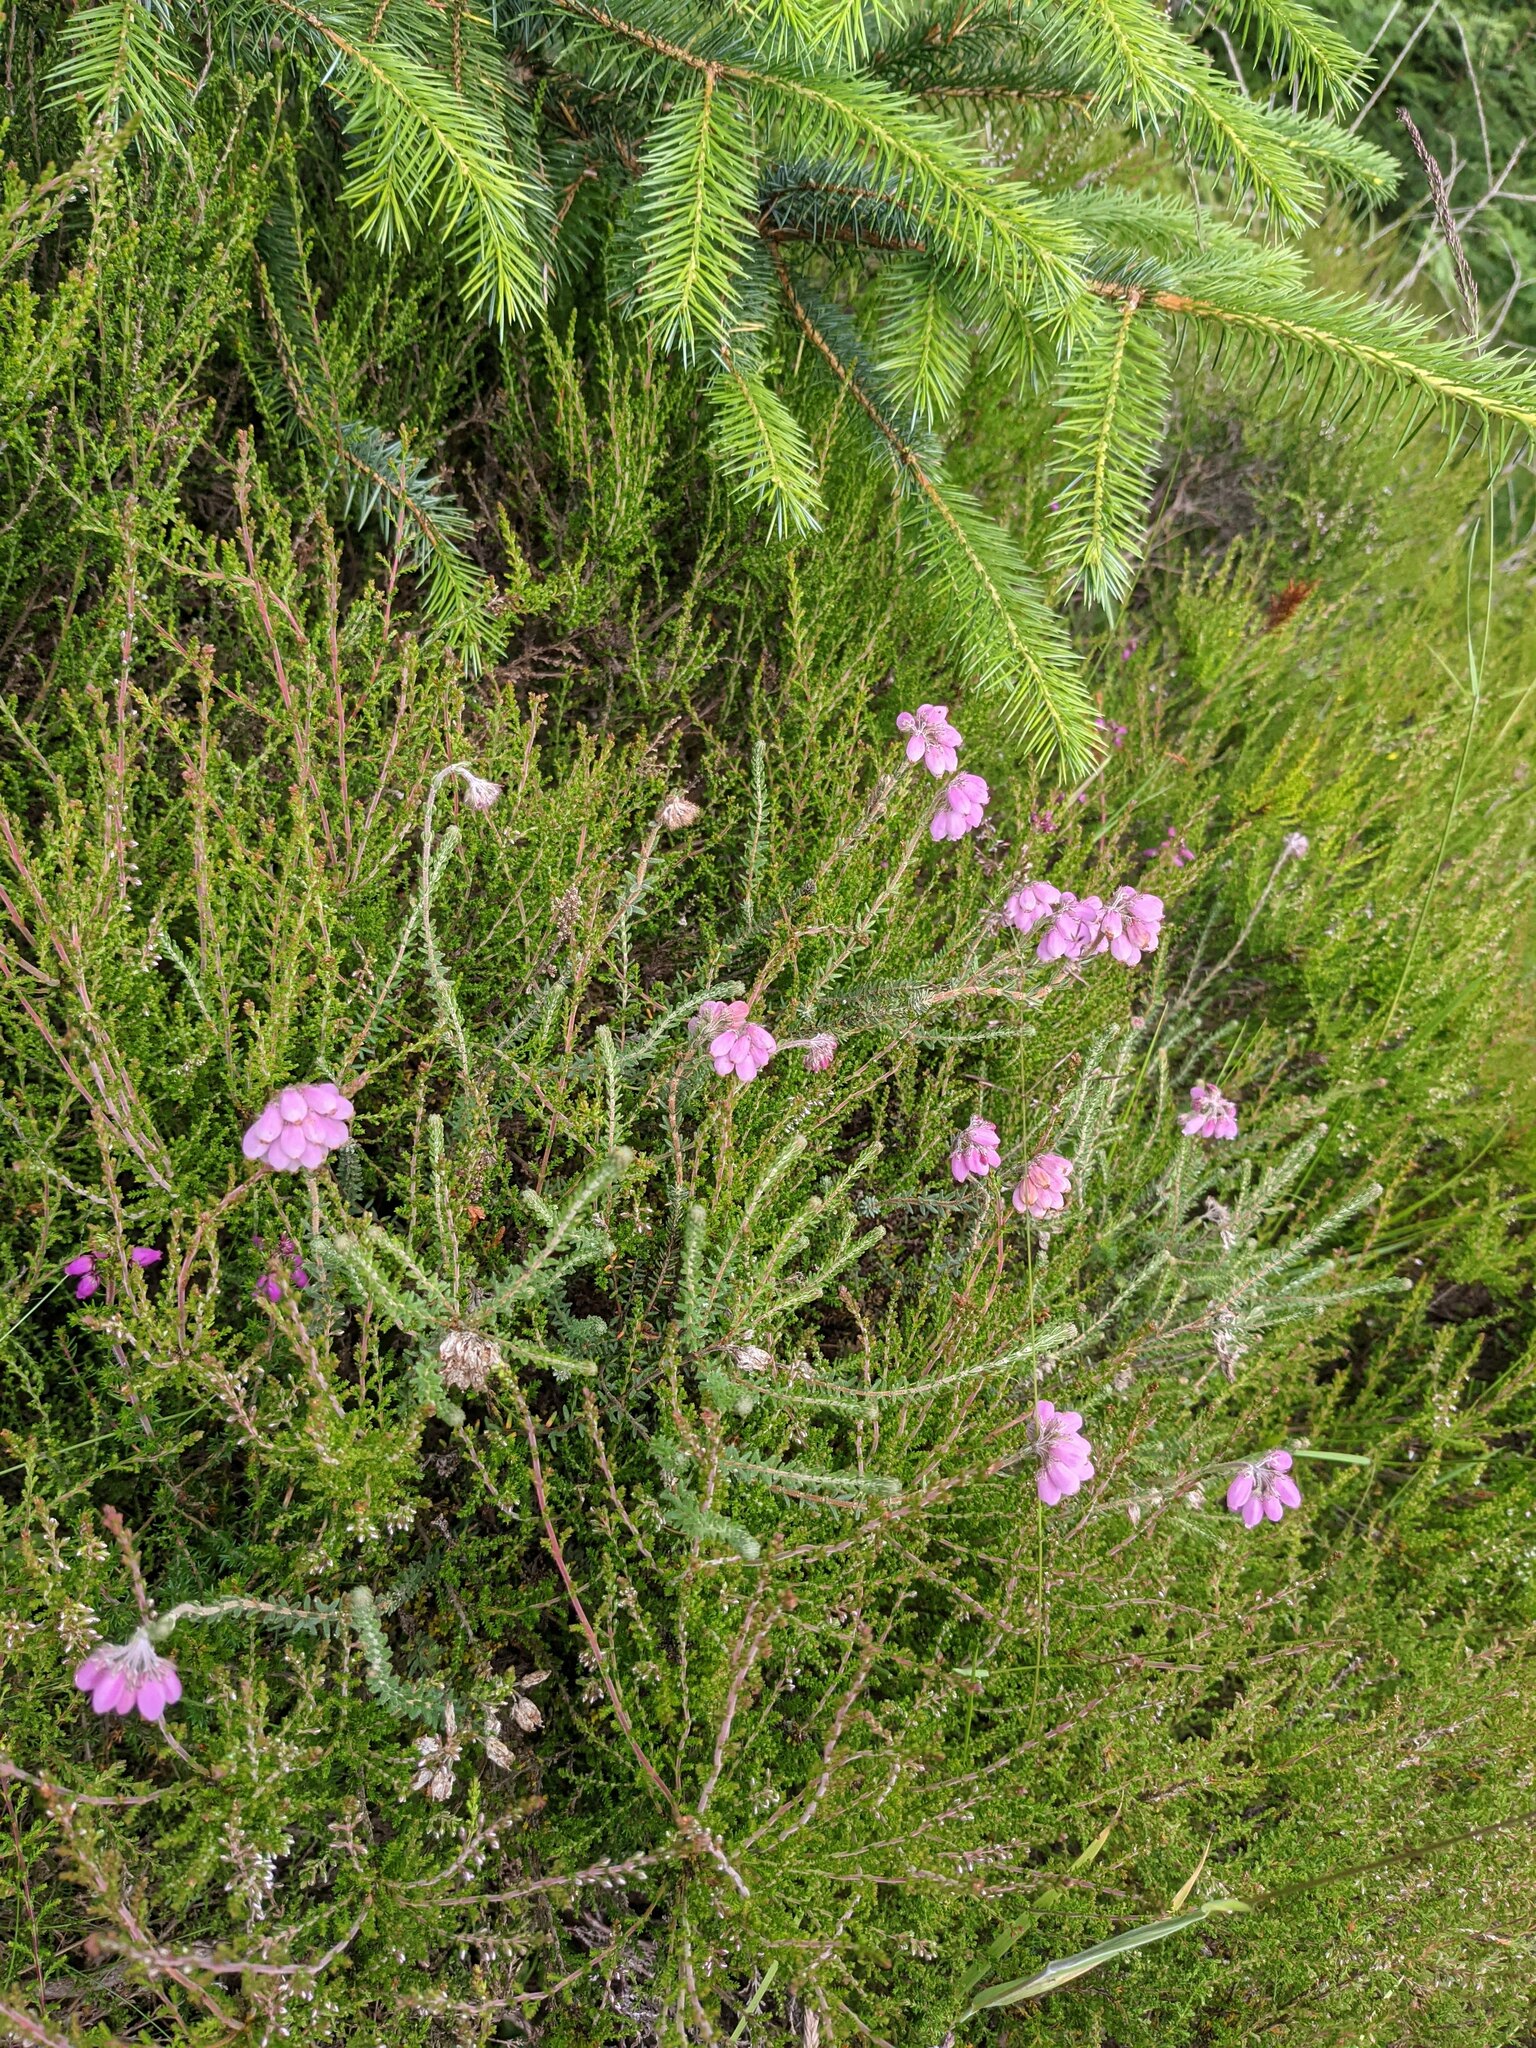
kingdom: Plantae
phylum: Tracheophyta
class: Magnoliopsida
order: Ericales
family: Ericaceae
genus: Erica
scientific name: Erica tetralix
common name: Cross-leaved heath
